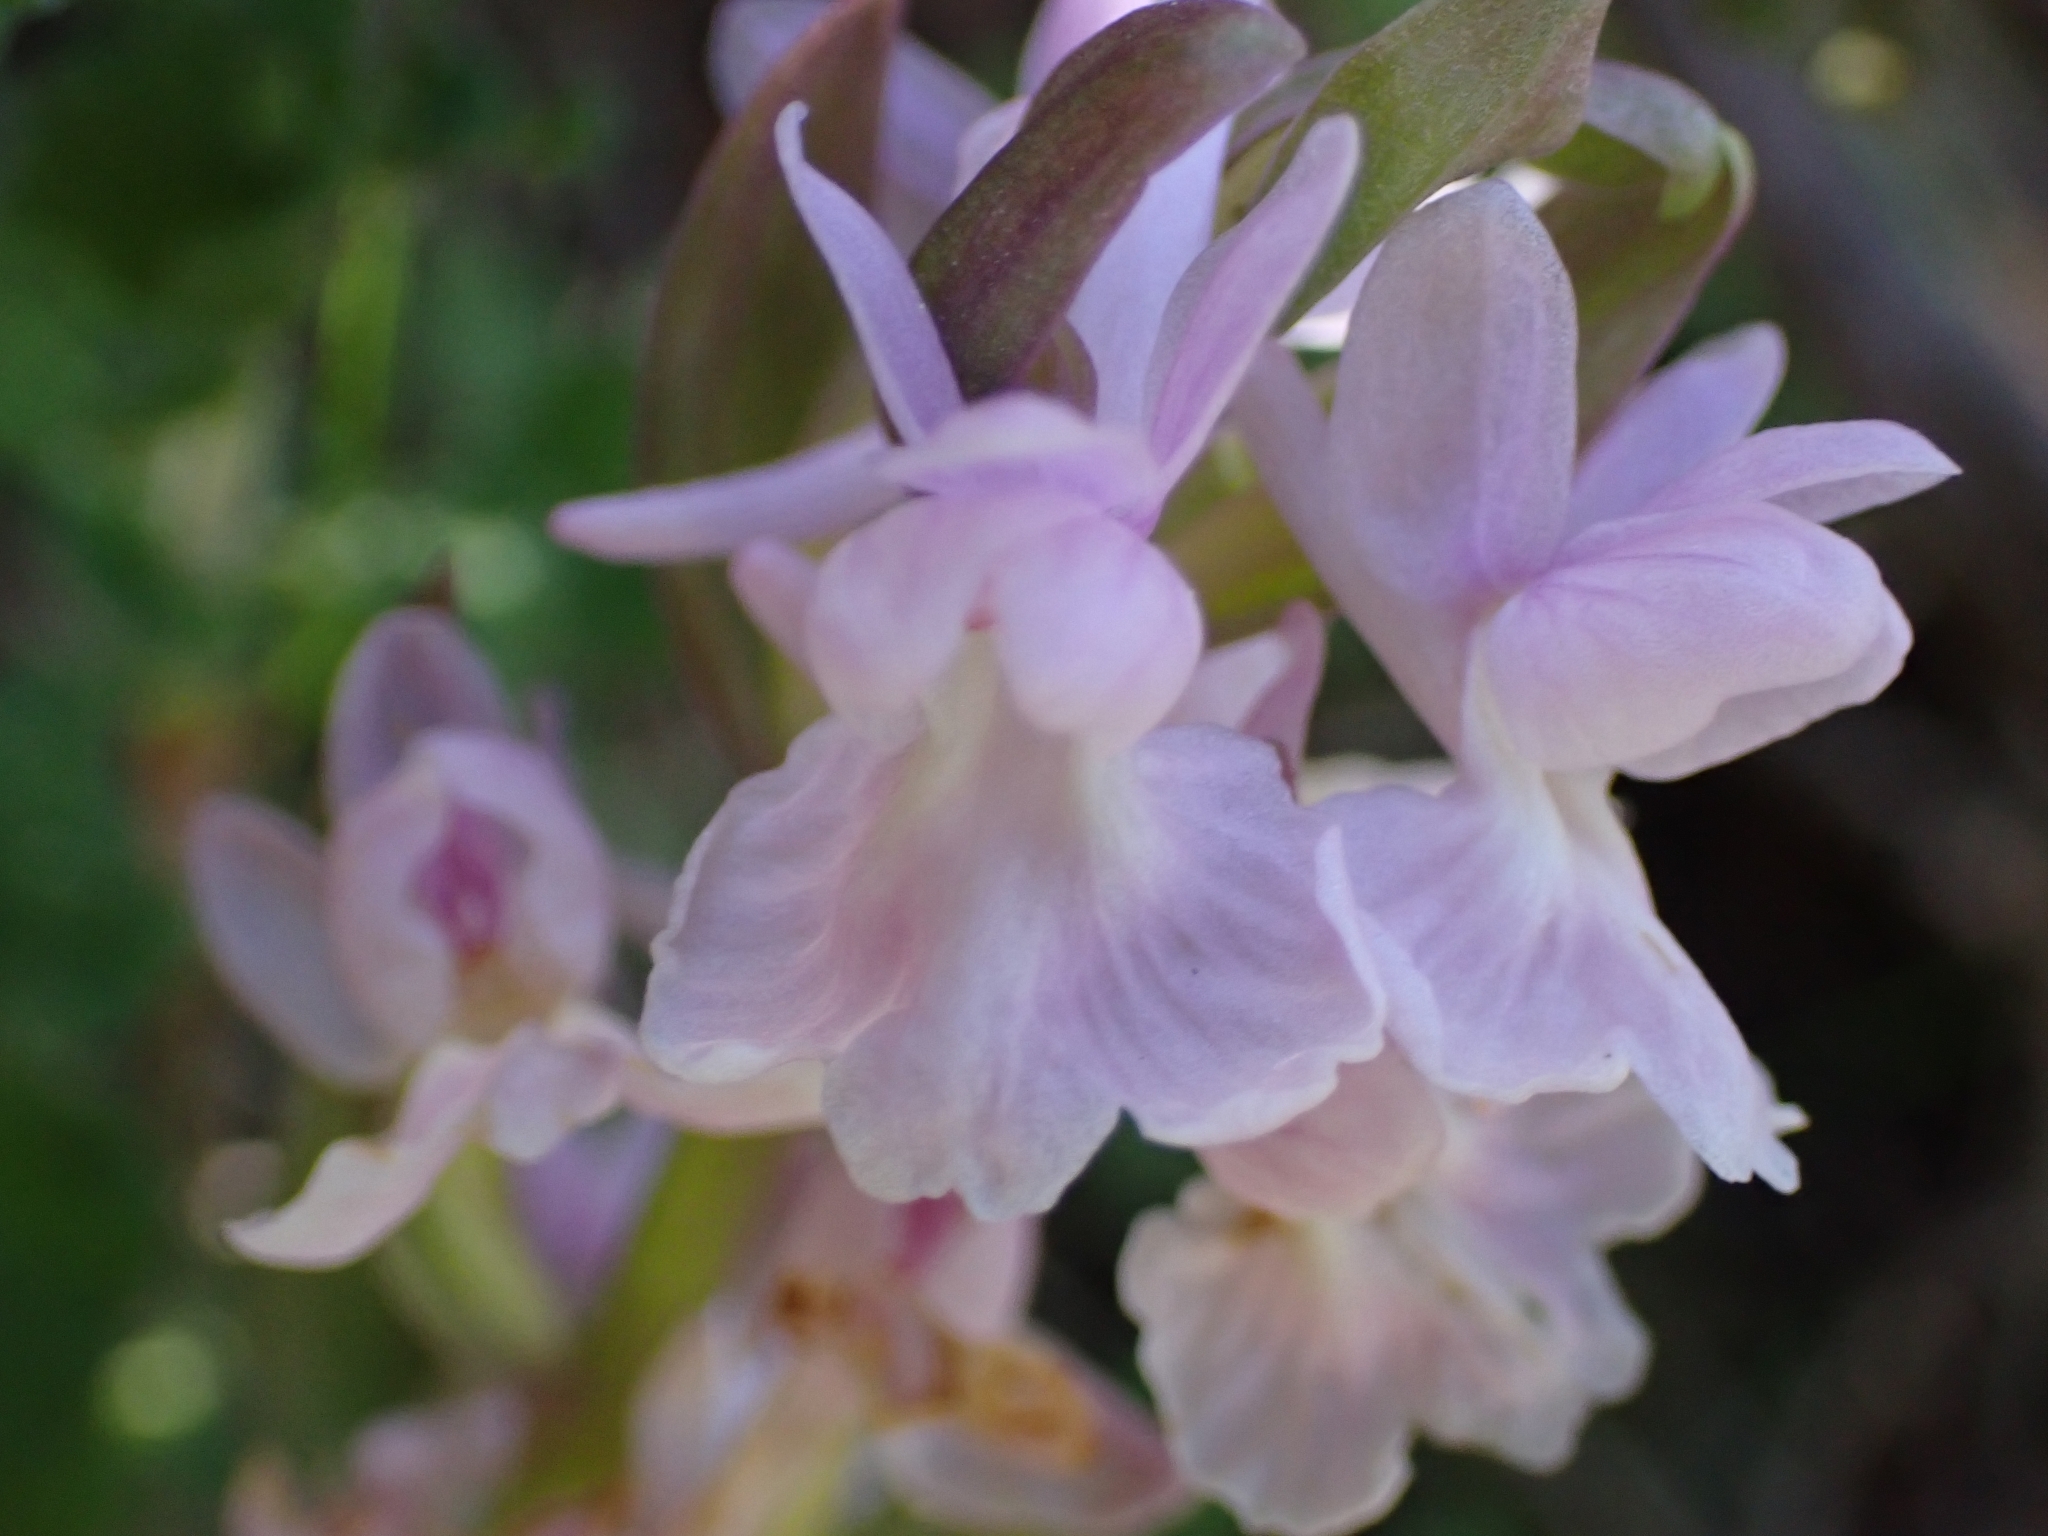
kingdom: Plantae
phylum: Tracheophyta
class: Liliopsida
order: Asparagales
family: Orchidaceae
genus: Dactylorhiza
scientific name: Dactylorhiza romana
